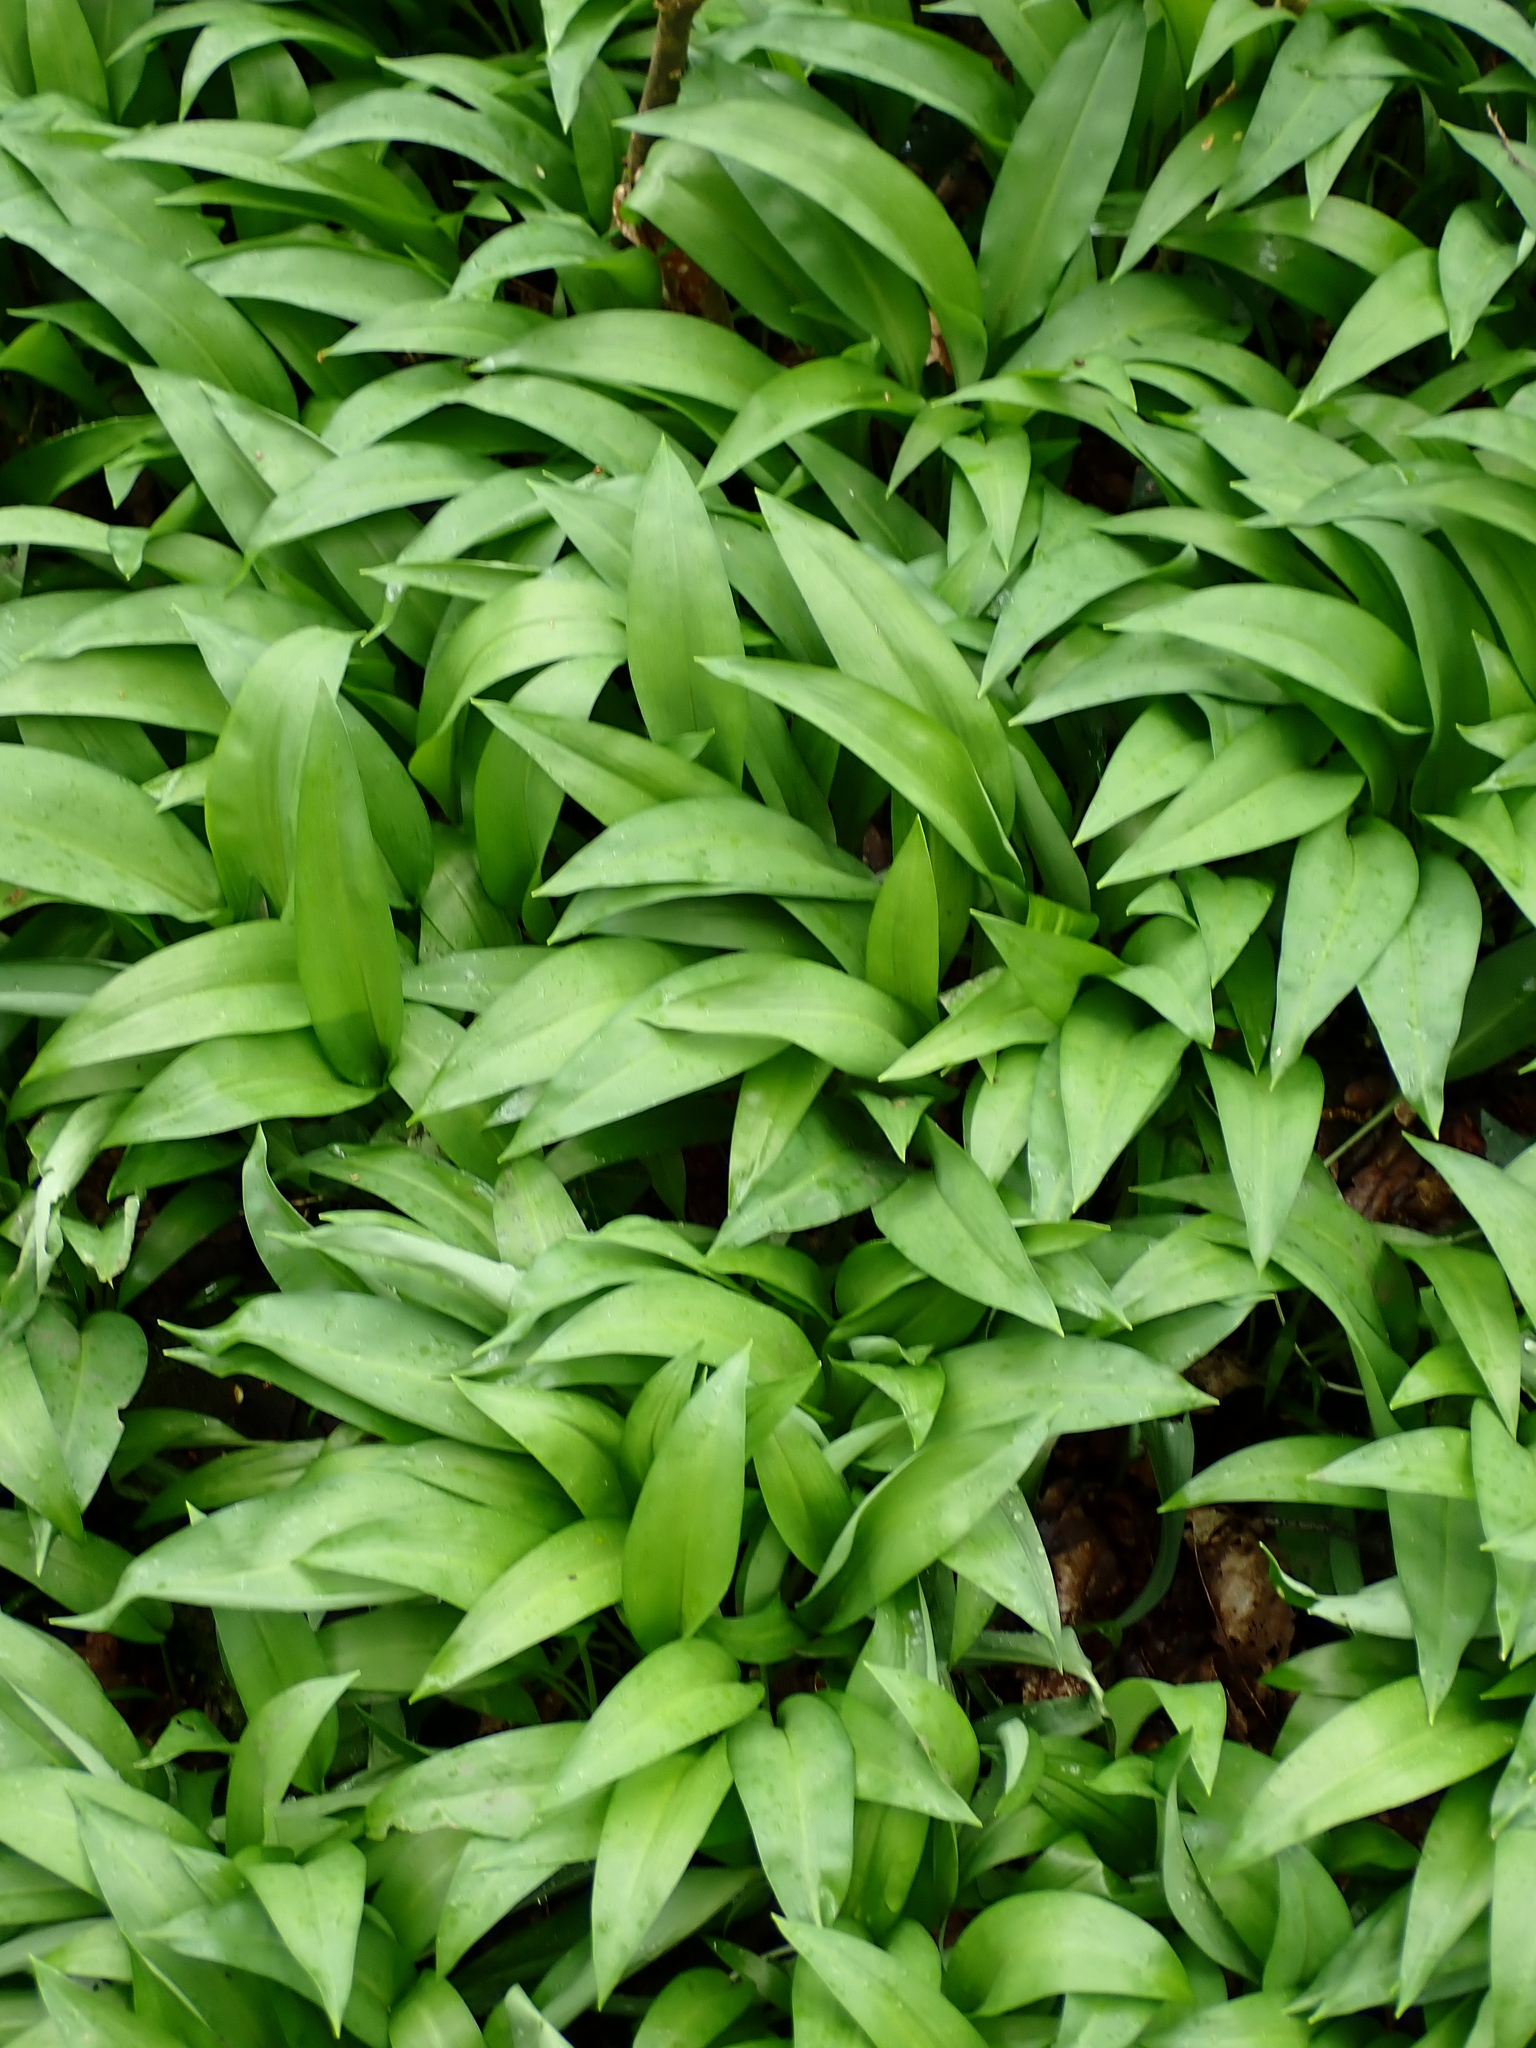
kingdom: Plantae
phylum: Tracheophyta
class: Liliopsida
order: Asparagales
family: Amaryllidaceae
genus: Allium
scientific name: Allium ursinum
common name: Ramsons
